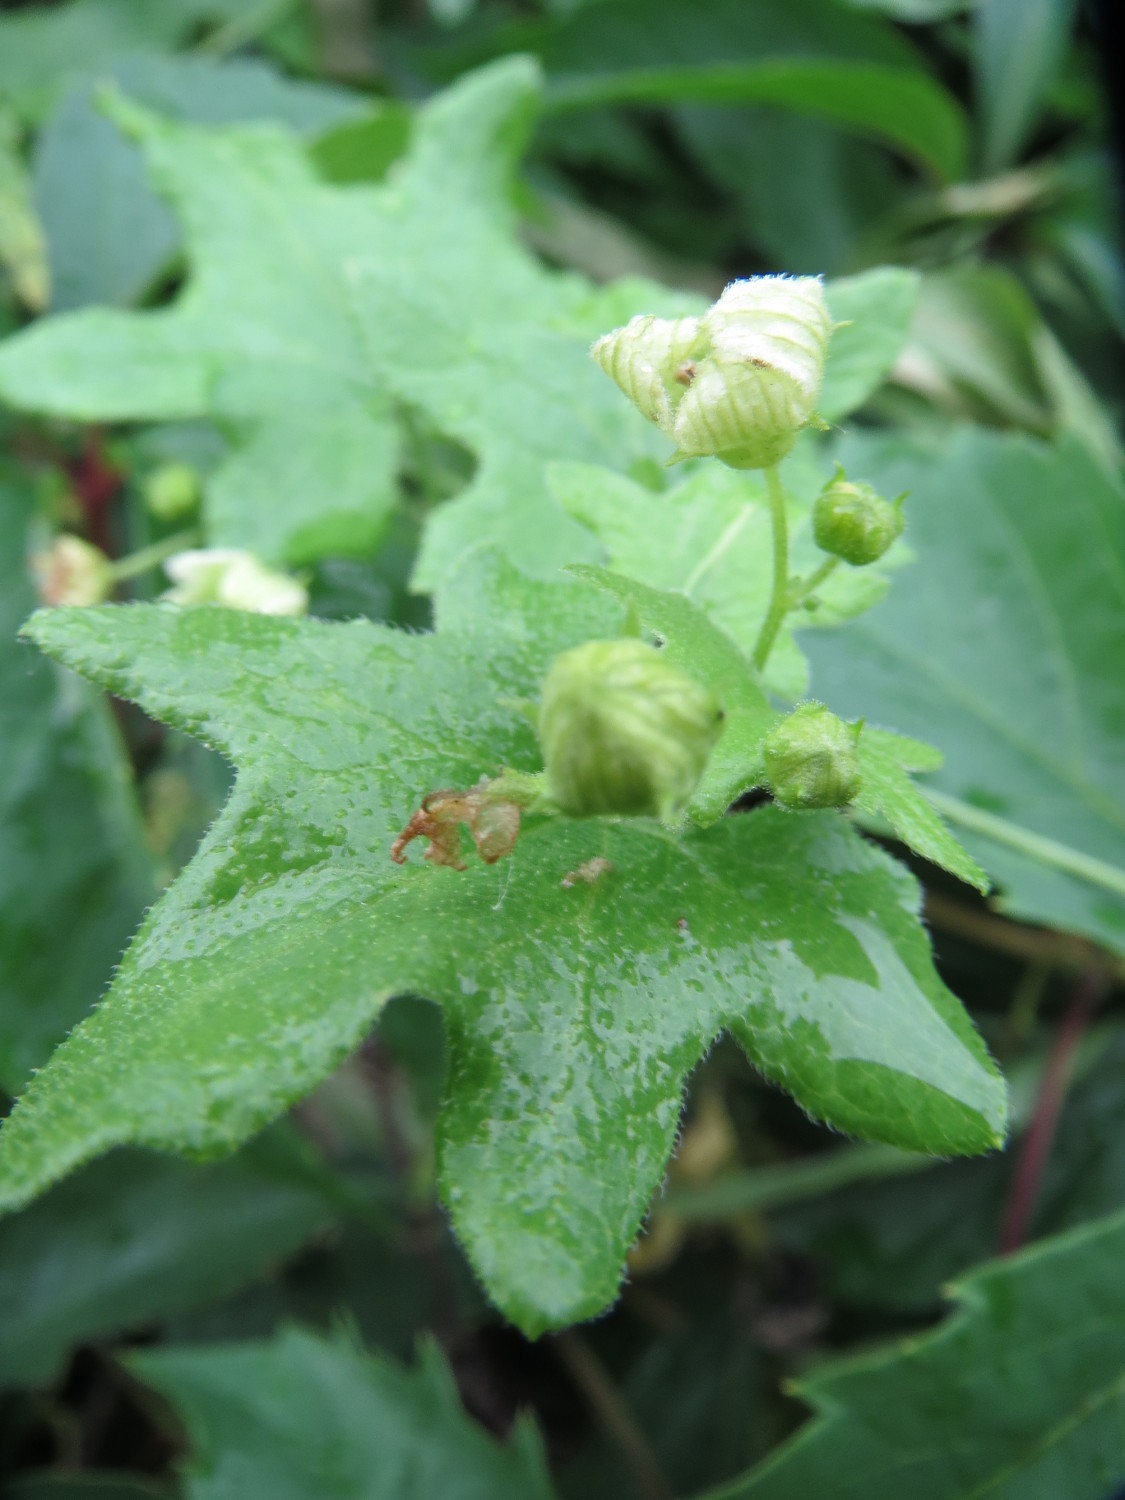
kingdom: Plantae
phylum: Tracheophyta
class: Magnoliopsida
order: Cucurbitales
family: Cucurbitaceae
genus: Bryonia
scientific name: Bryonia dioica
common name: White bryony
